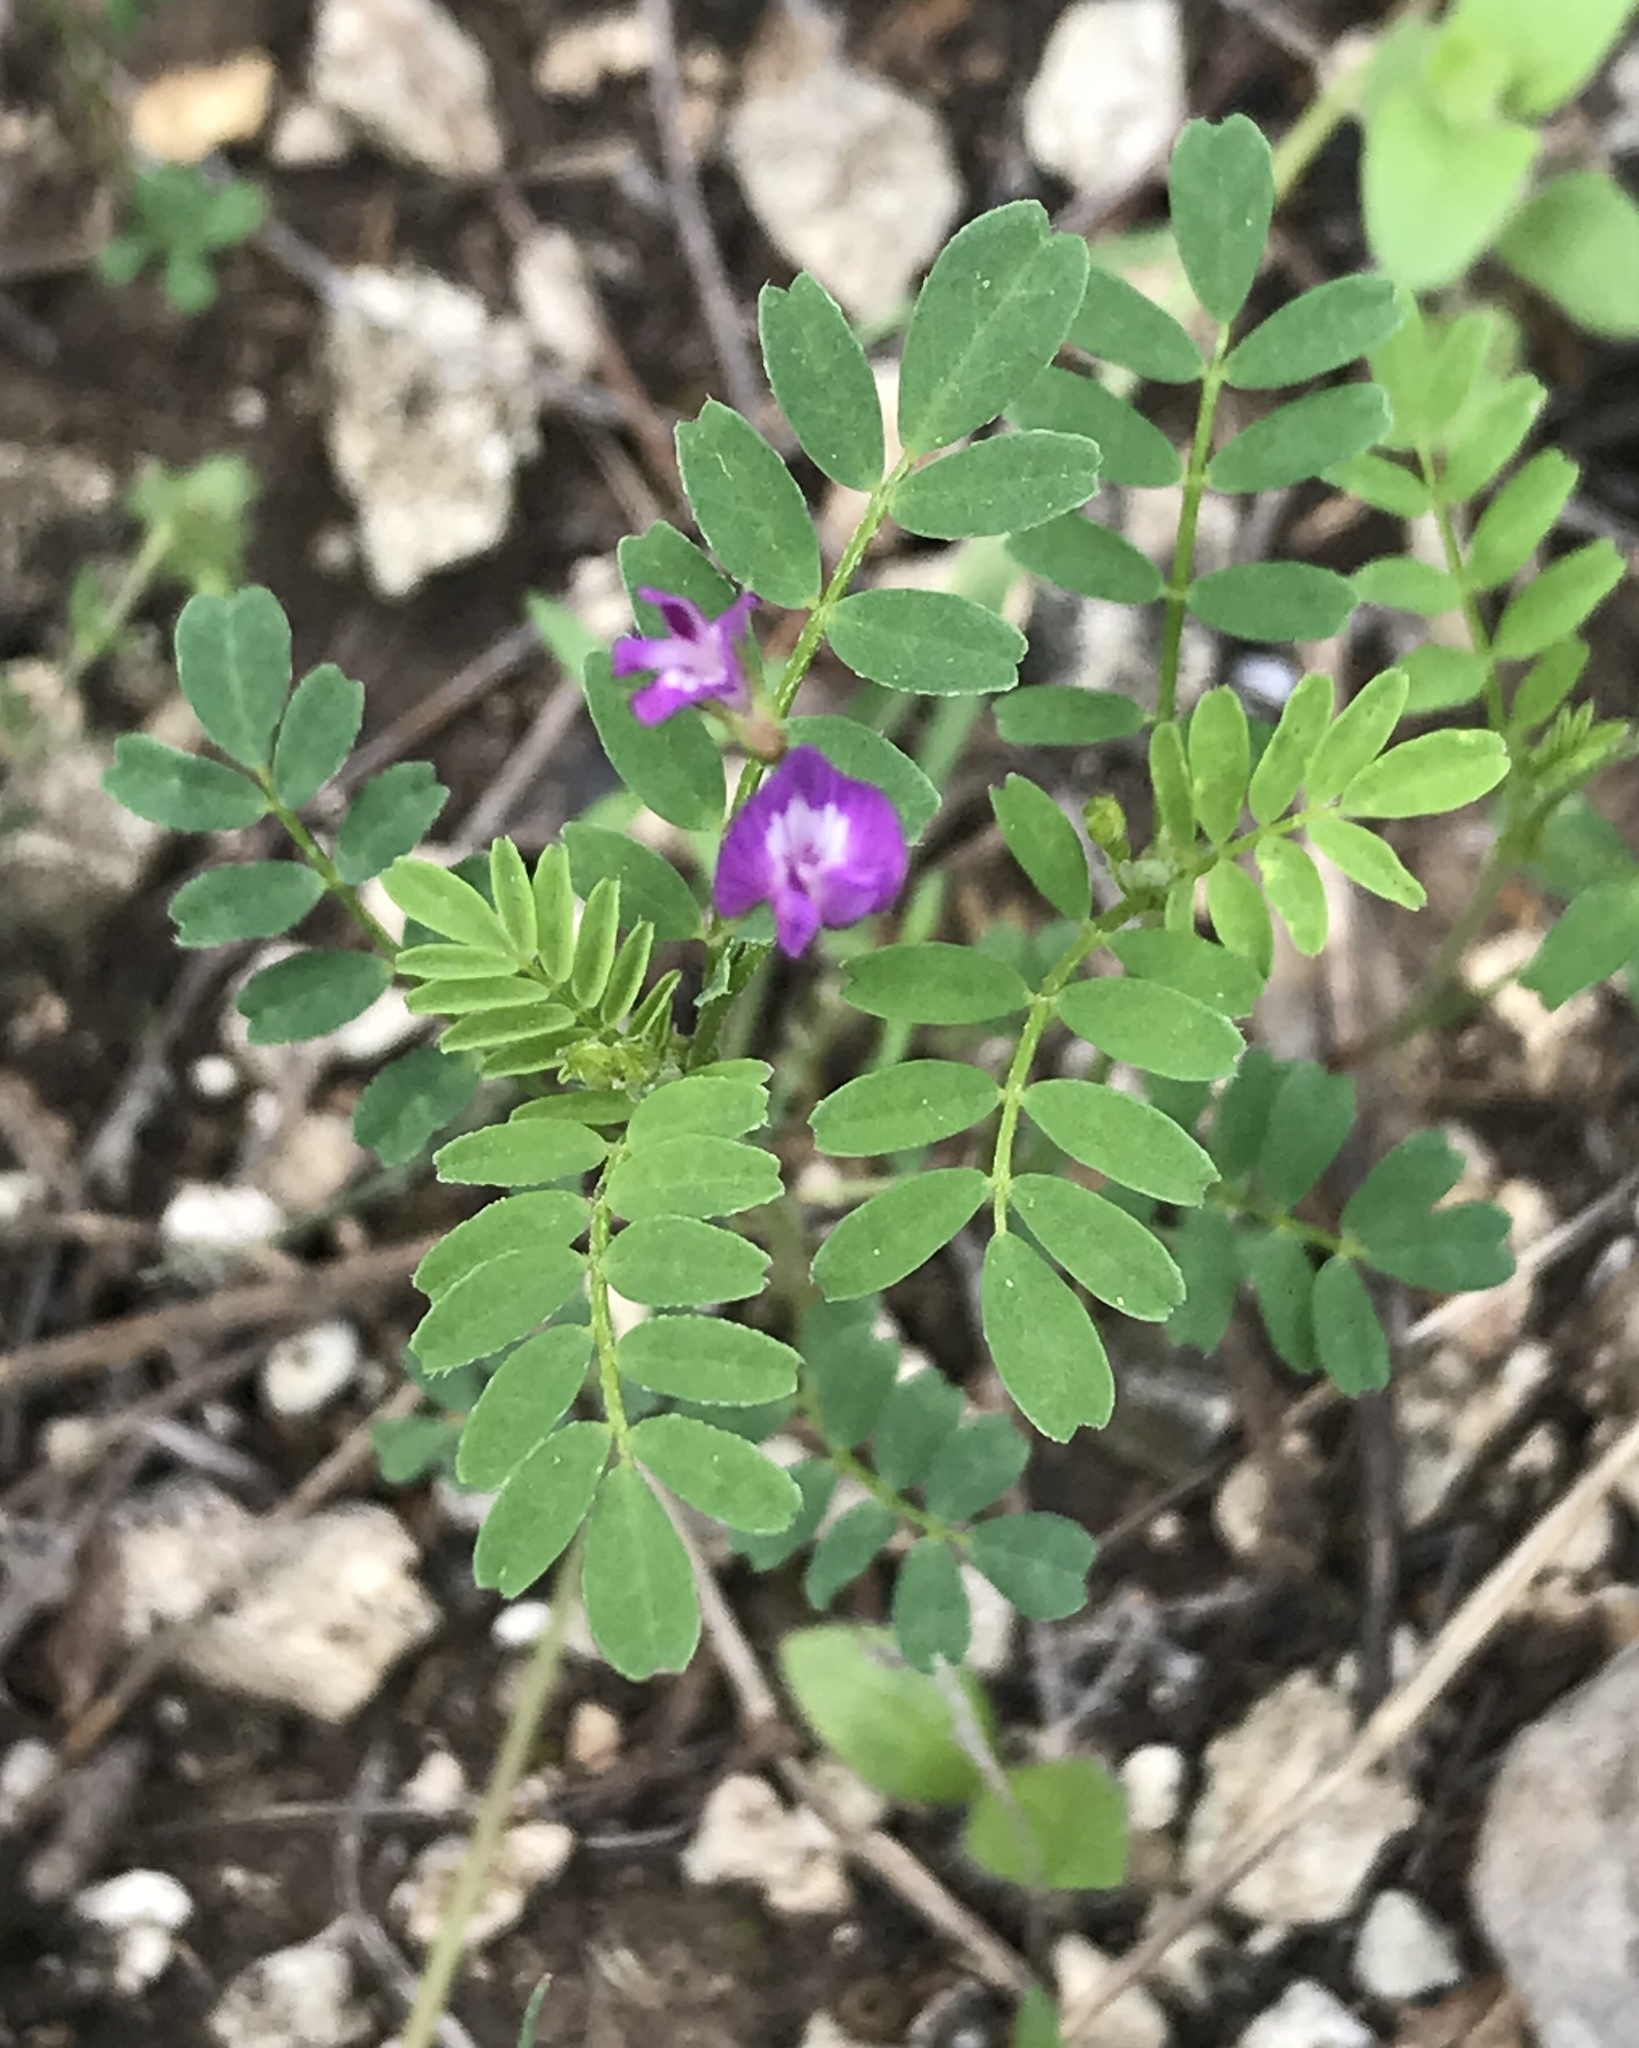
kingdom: Plantae
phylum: Tracheophyta
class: Magnoliopsida
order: Fabales
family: Fabaceae
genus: Astragalus
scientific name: Astragalus nuttallianus
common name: Smallflowered milkvetch
